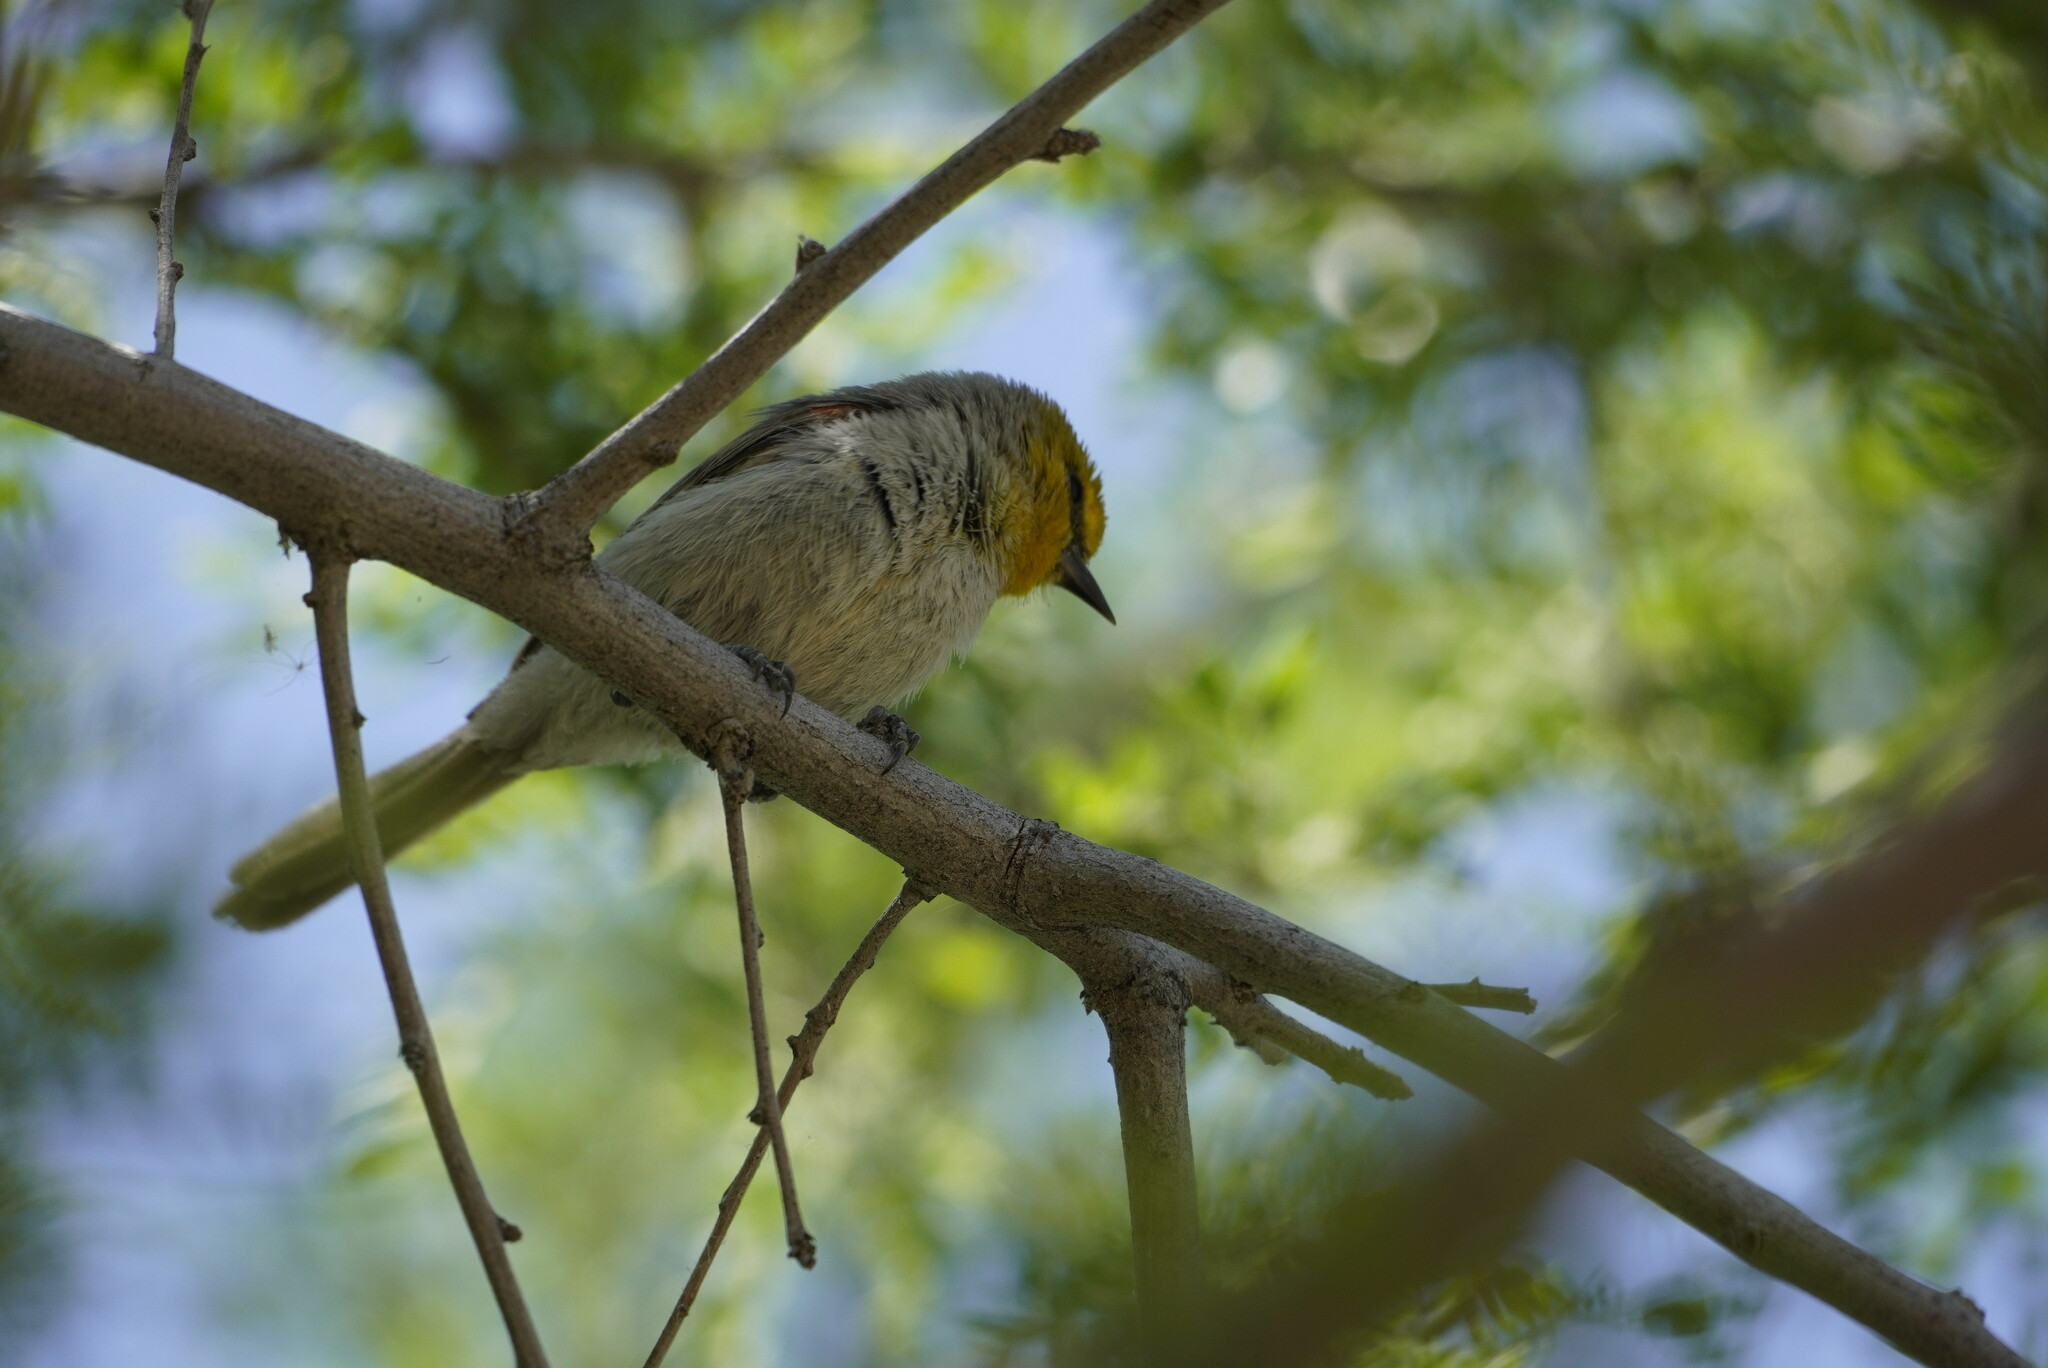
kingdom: Animalia
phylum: Chordata
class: Aves
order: Passeriformes
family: Remizidae
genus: Auriparus
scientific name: Auriparus flaviceps
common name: Verdin
